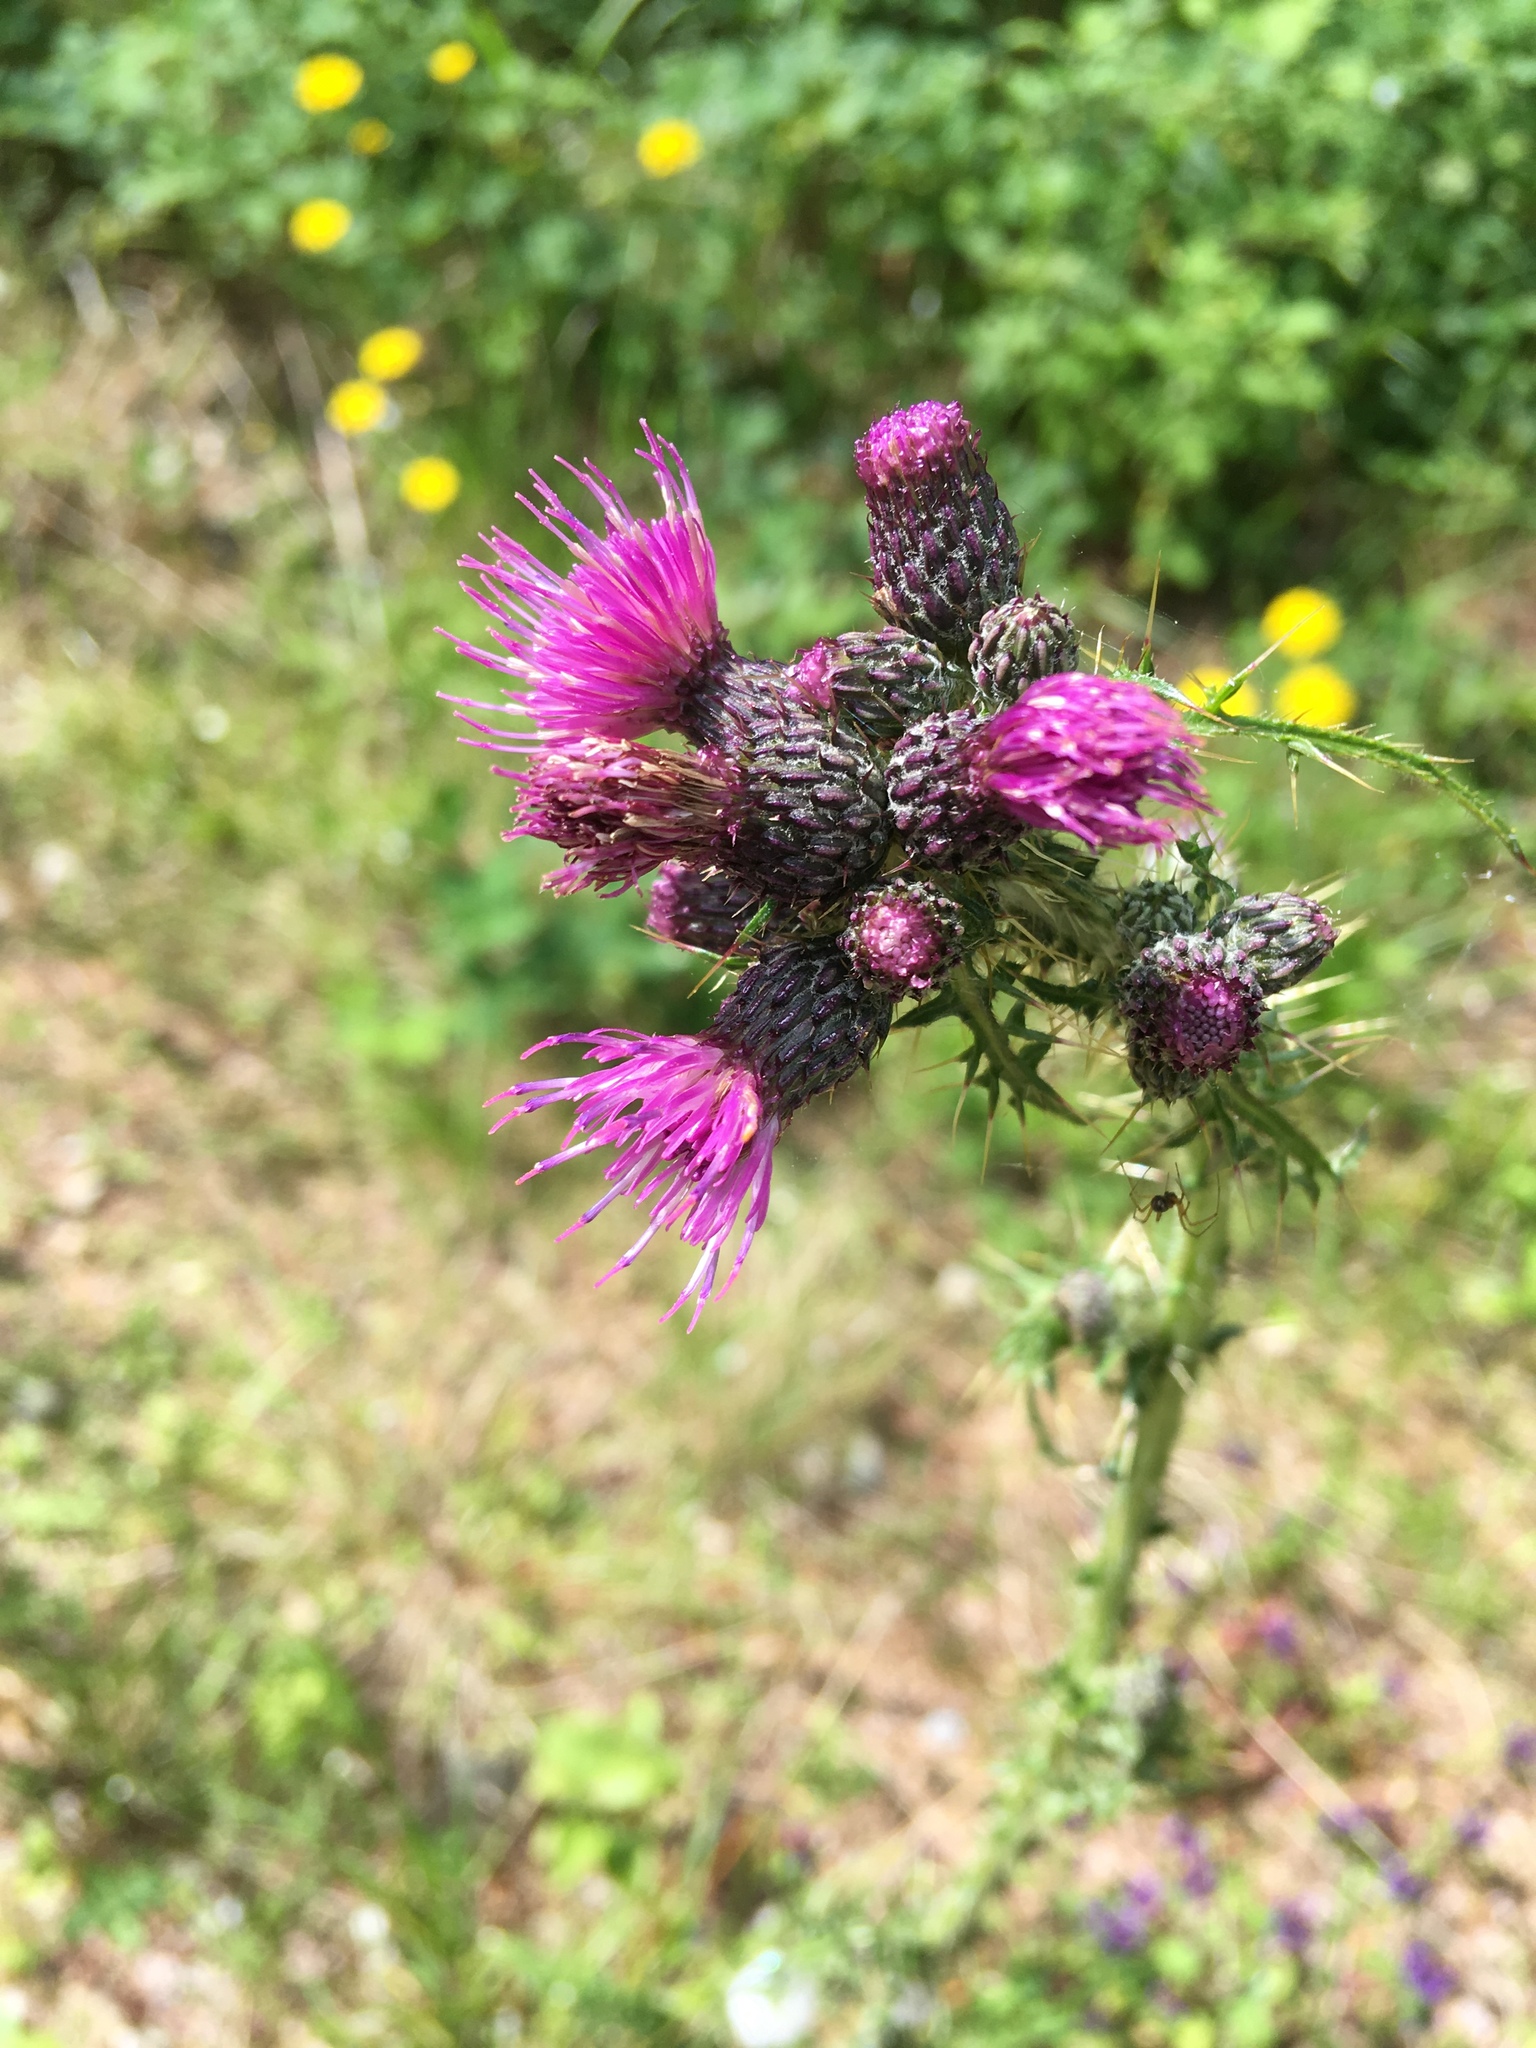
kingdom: Plantae
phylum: Tracheophyta
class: Magnoliopsida
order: Asterales
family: Asteraceae
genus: Cirsium
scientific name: Cirsium palustre
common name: Marsh thistle
